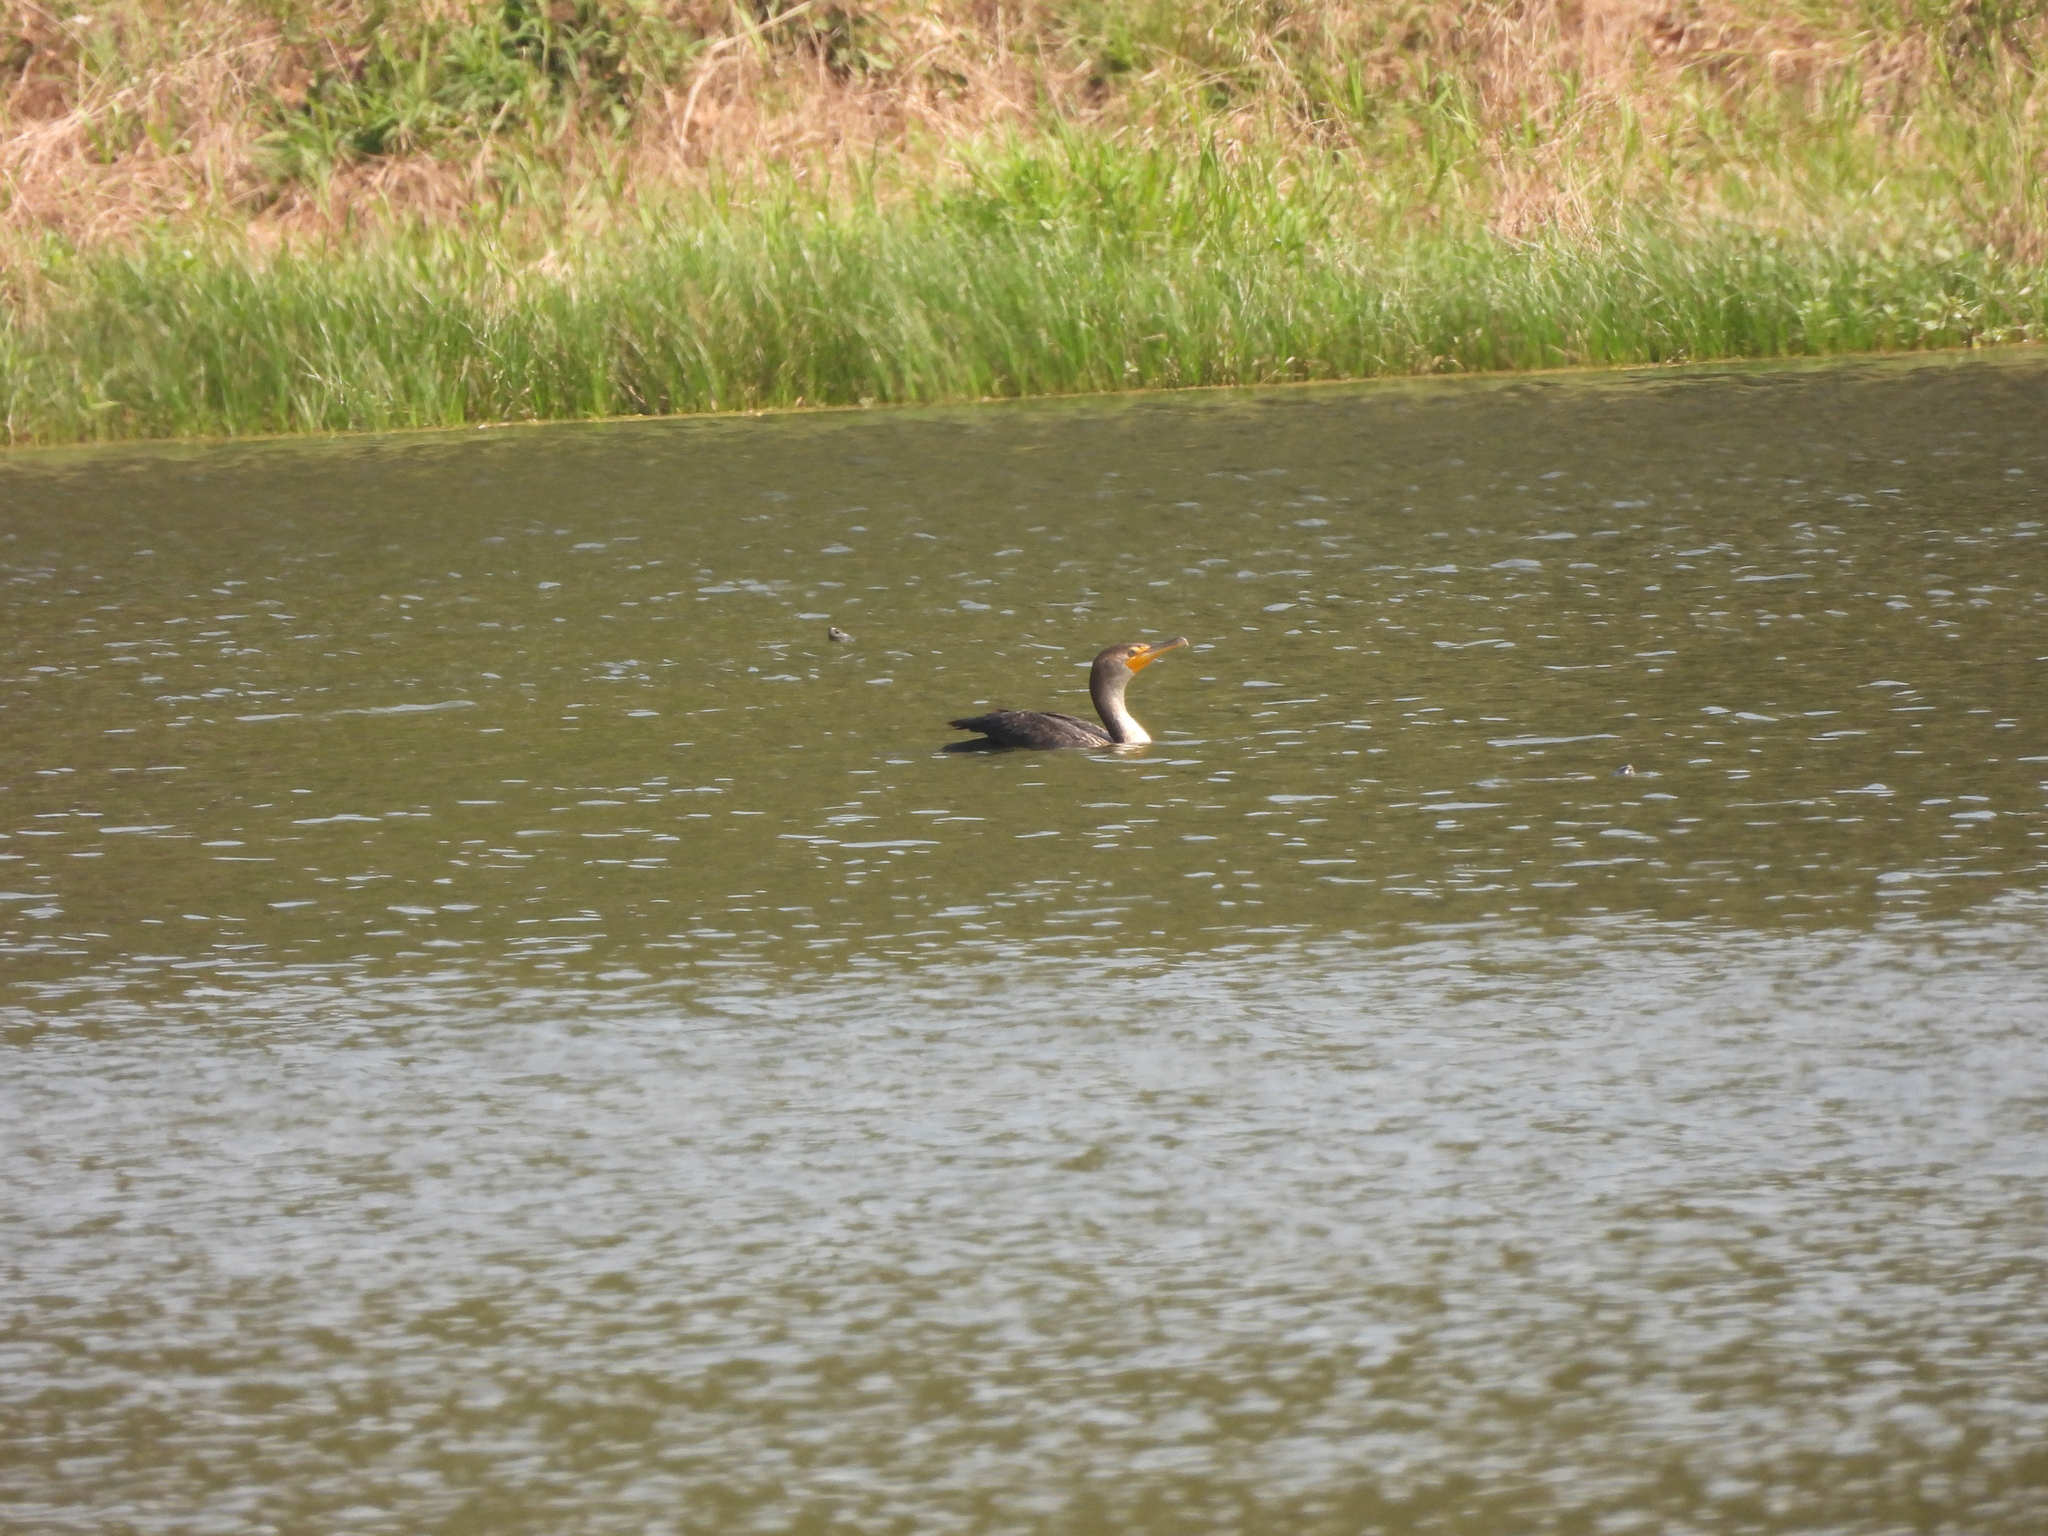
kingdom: Animalia
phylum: Chordata
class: Aves
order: Suliformes
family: Phalacrocoracidae
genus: Phalacrocorax
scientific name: Phalacrocorax auritus
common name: Double-crested cormorant
